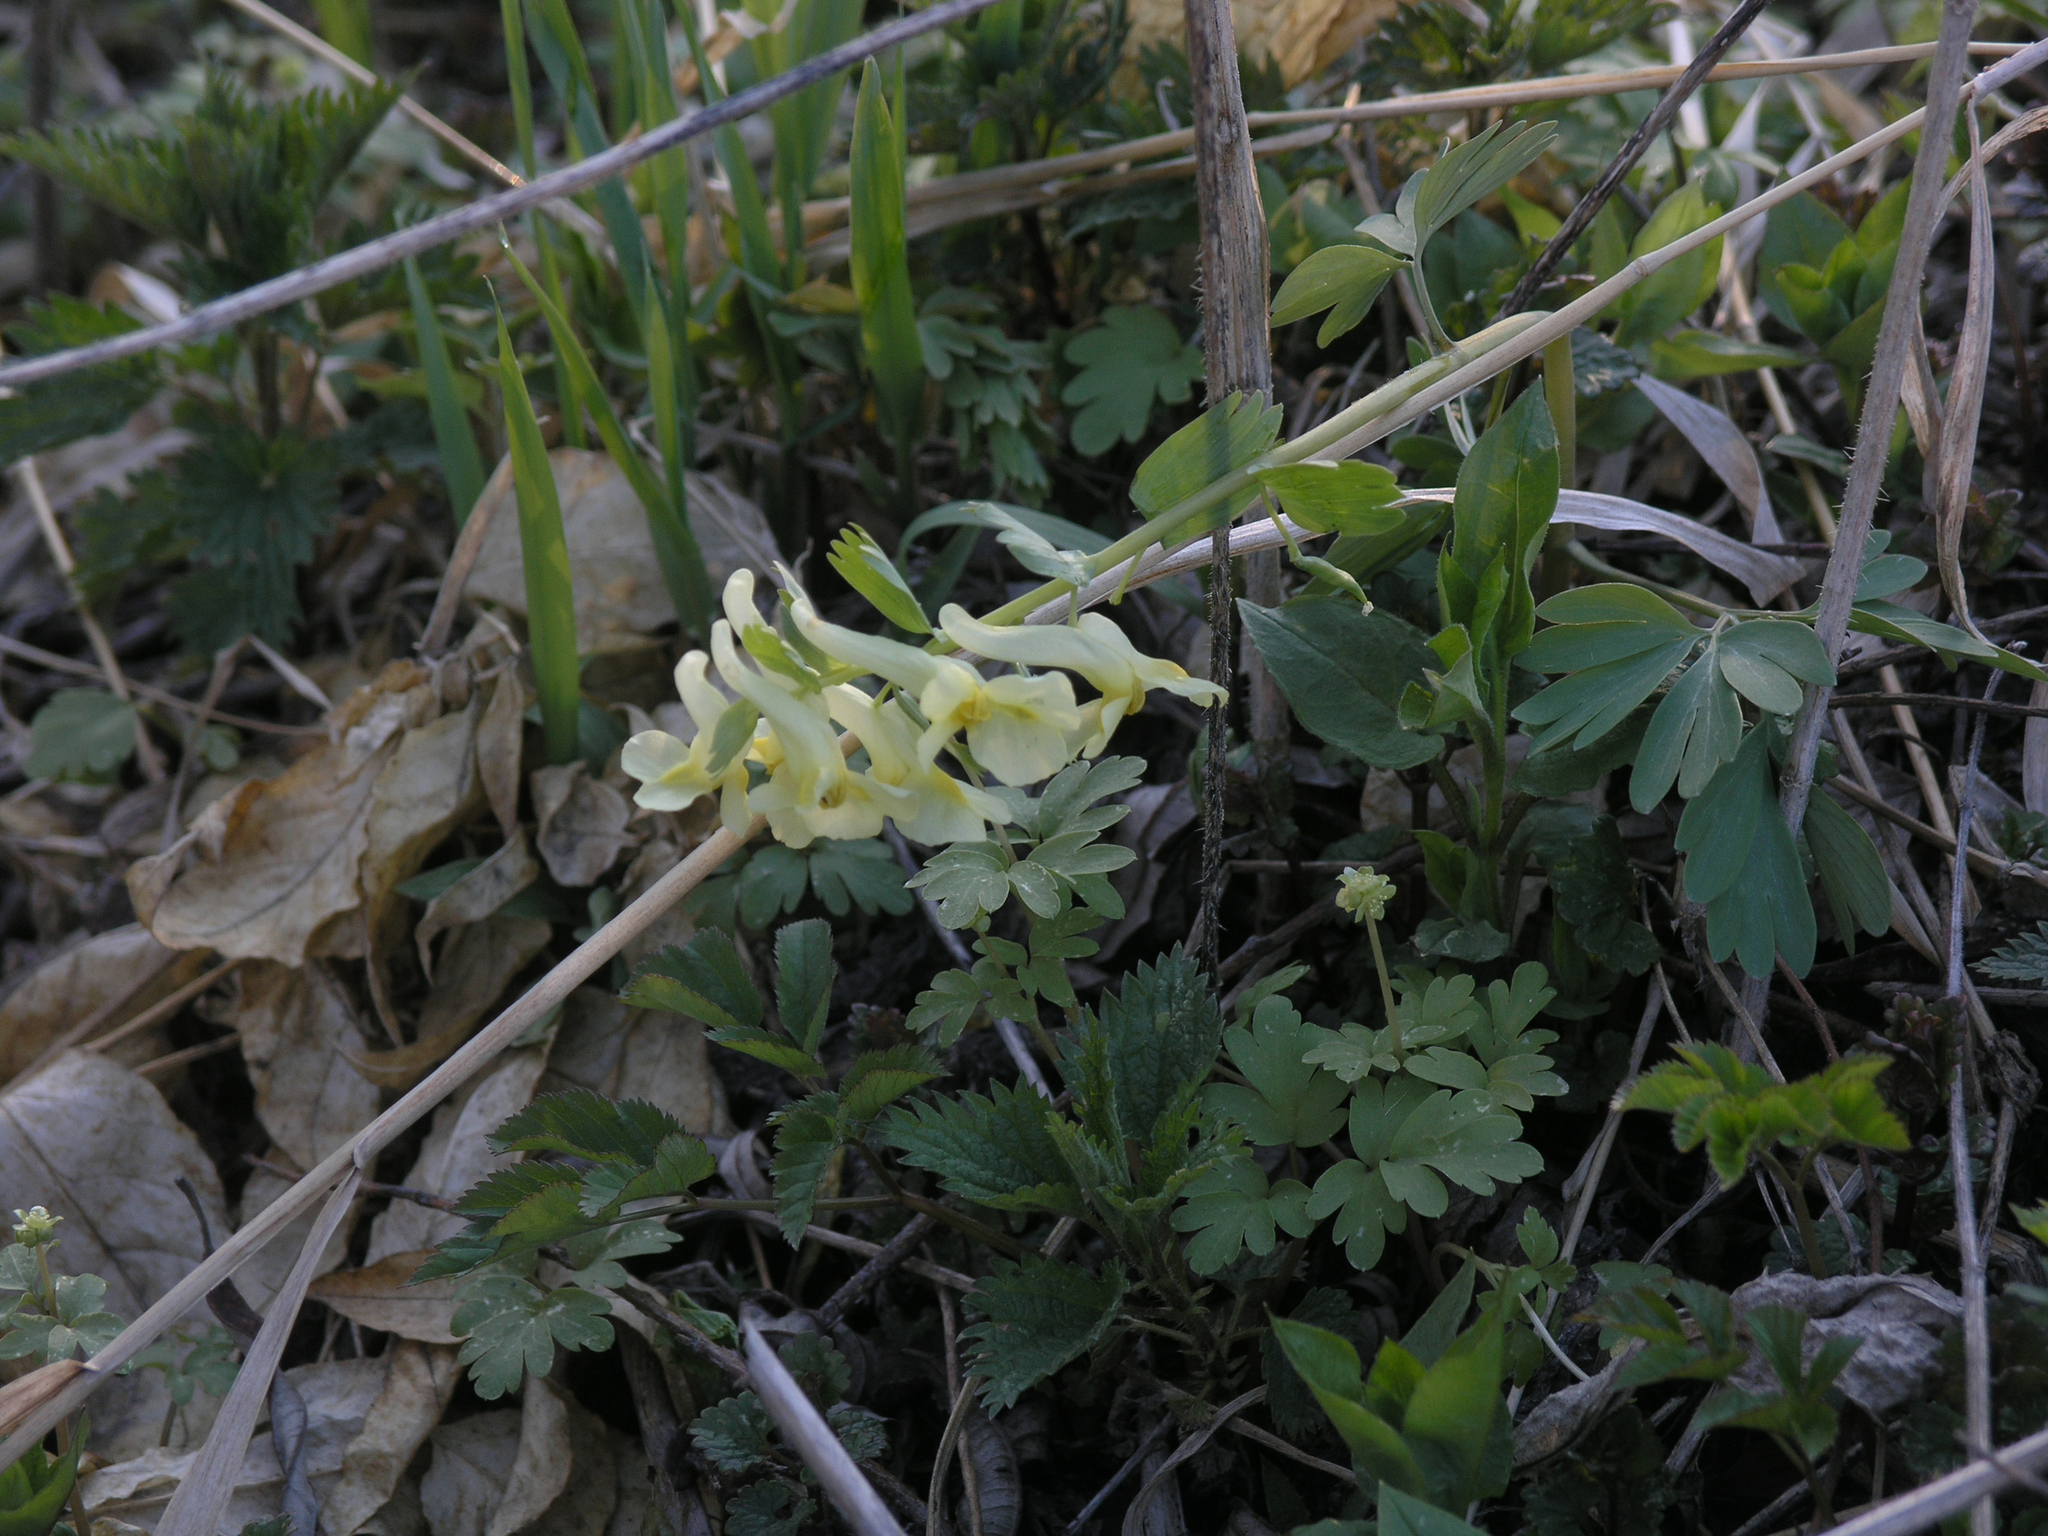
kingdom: Plantae
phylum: Tracheophyta
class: Magnoliopsida
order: Ranunculales
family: Papaveraceae
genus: Corydalis
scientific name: Corydalis bracteata
